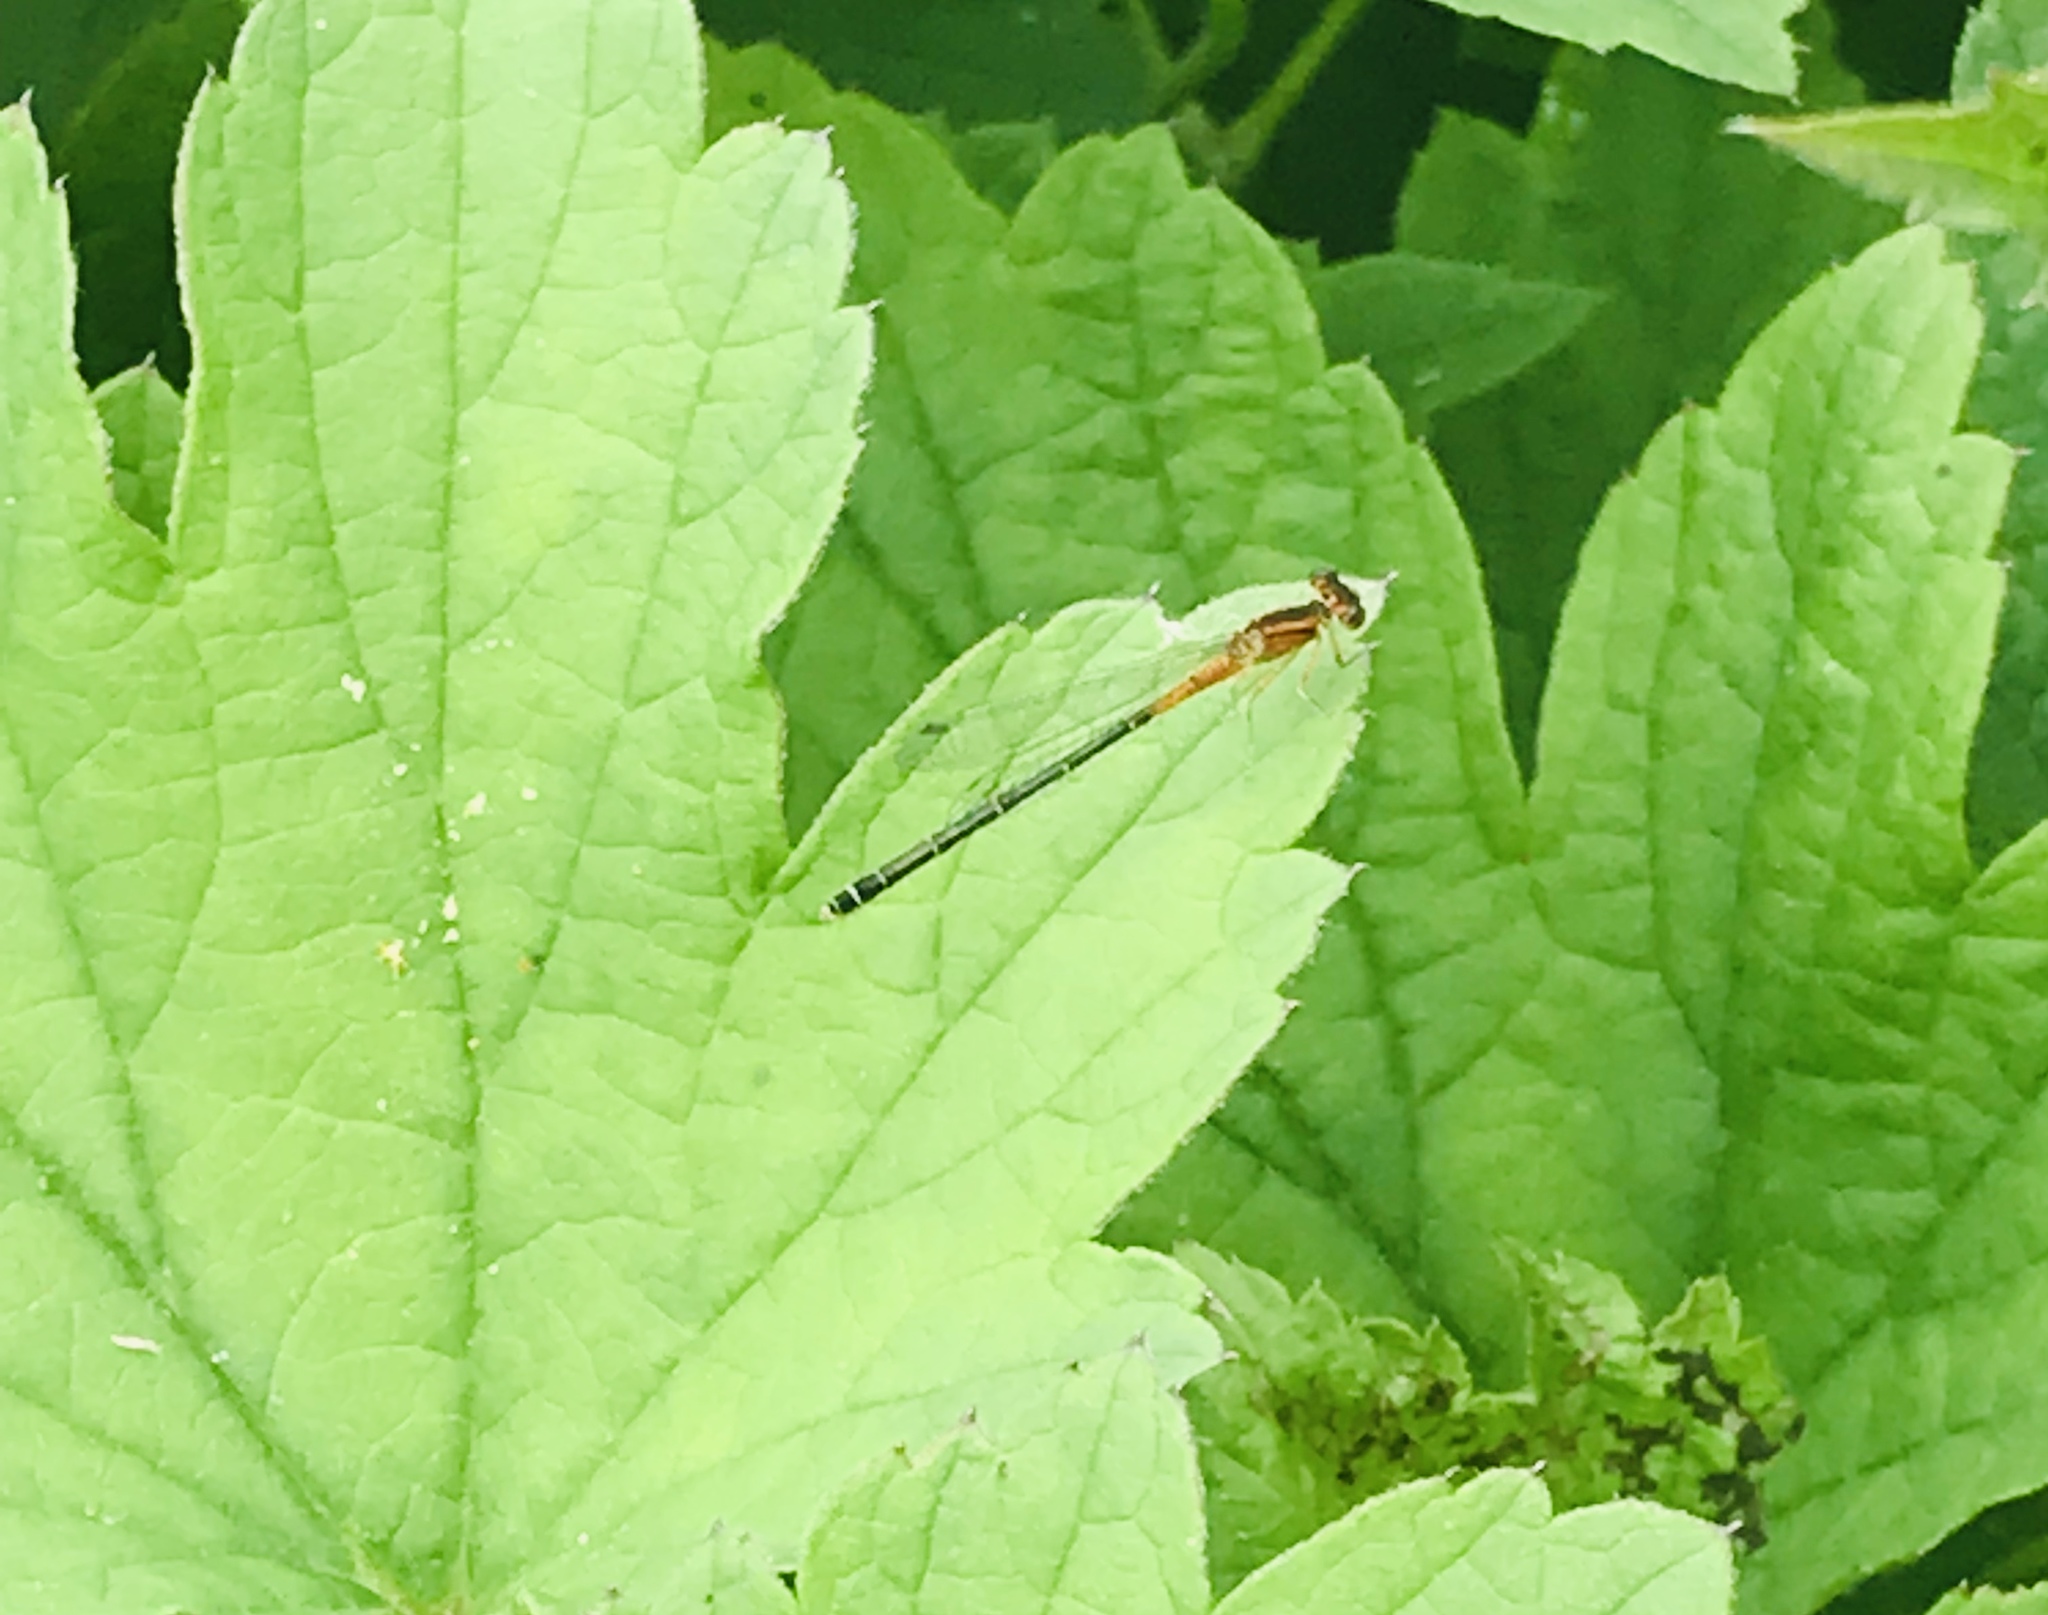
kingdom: Animalia
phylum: Arthropoda
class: Insecta
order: Odonata
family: Coenagrionidae
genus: Ischnura
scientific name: Ischnura verticalis
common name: Eastern forktail
